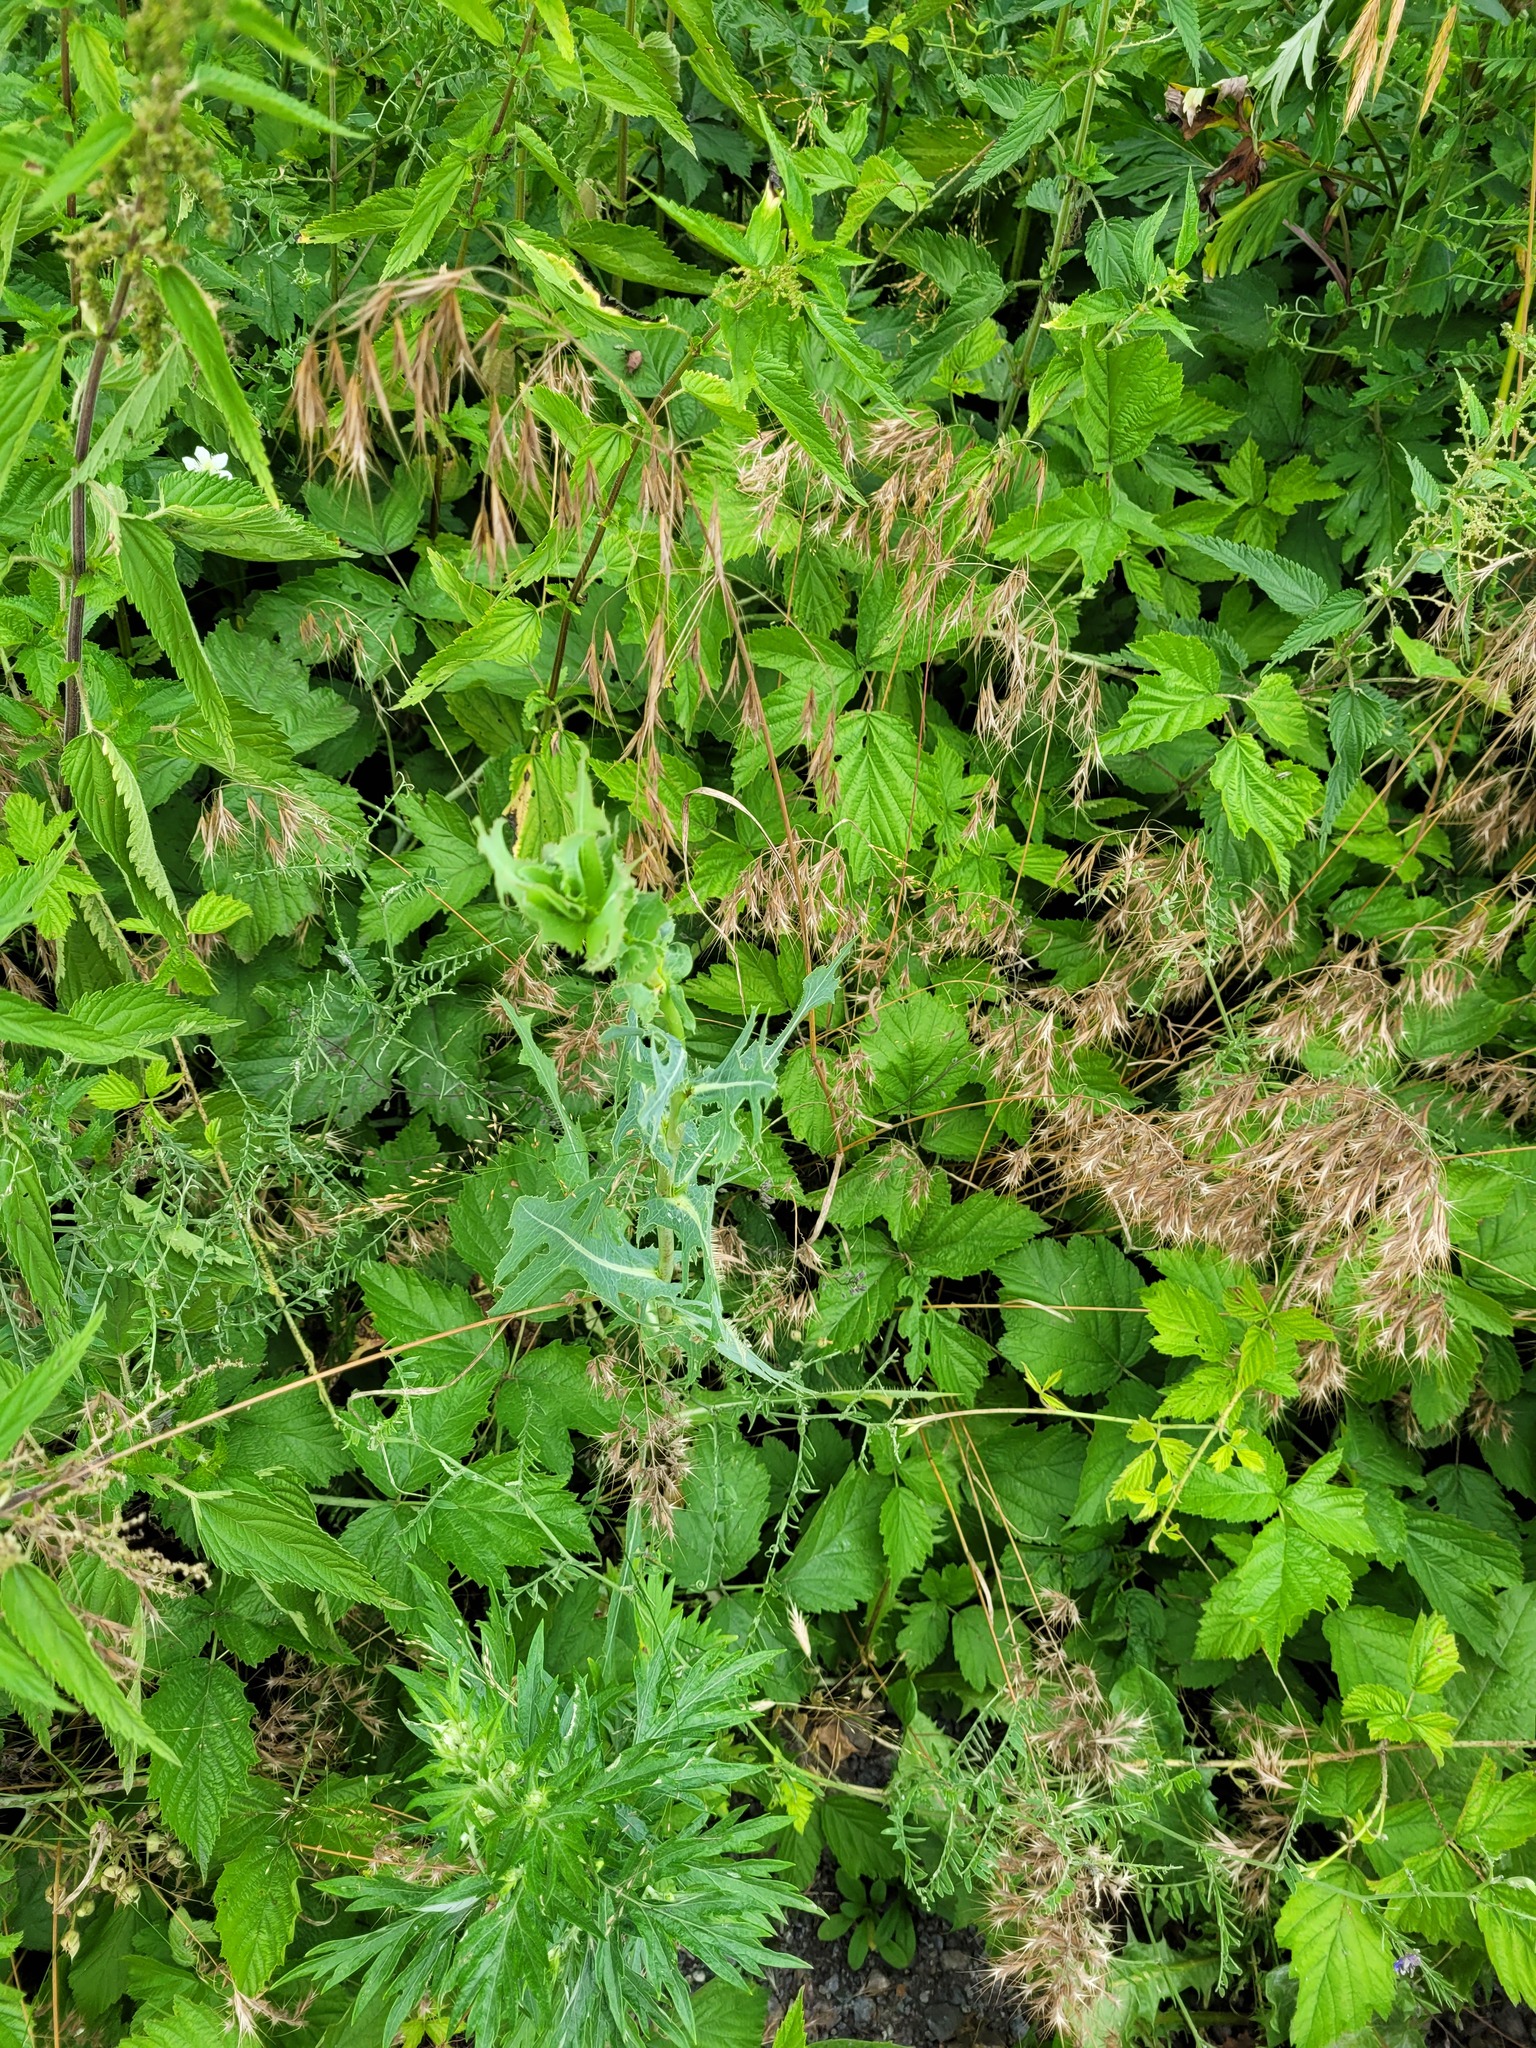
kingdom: Plantae
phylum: Tracheophyta
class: Magnoliopsida
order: Asterales
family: Asteraceae
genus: Lactuca
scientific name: Lactuca serriola
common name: Prickly lettuce
